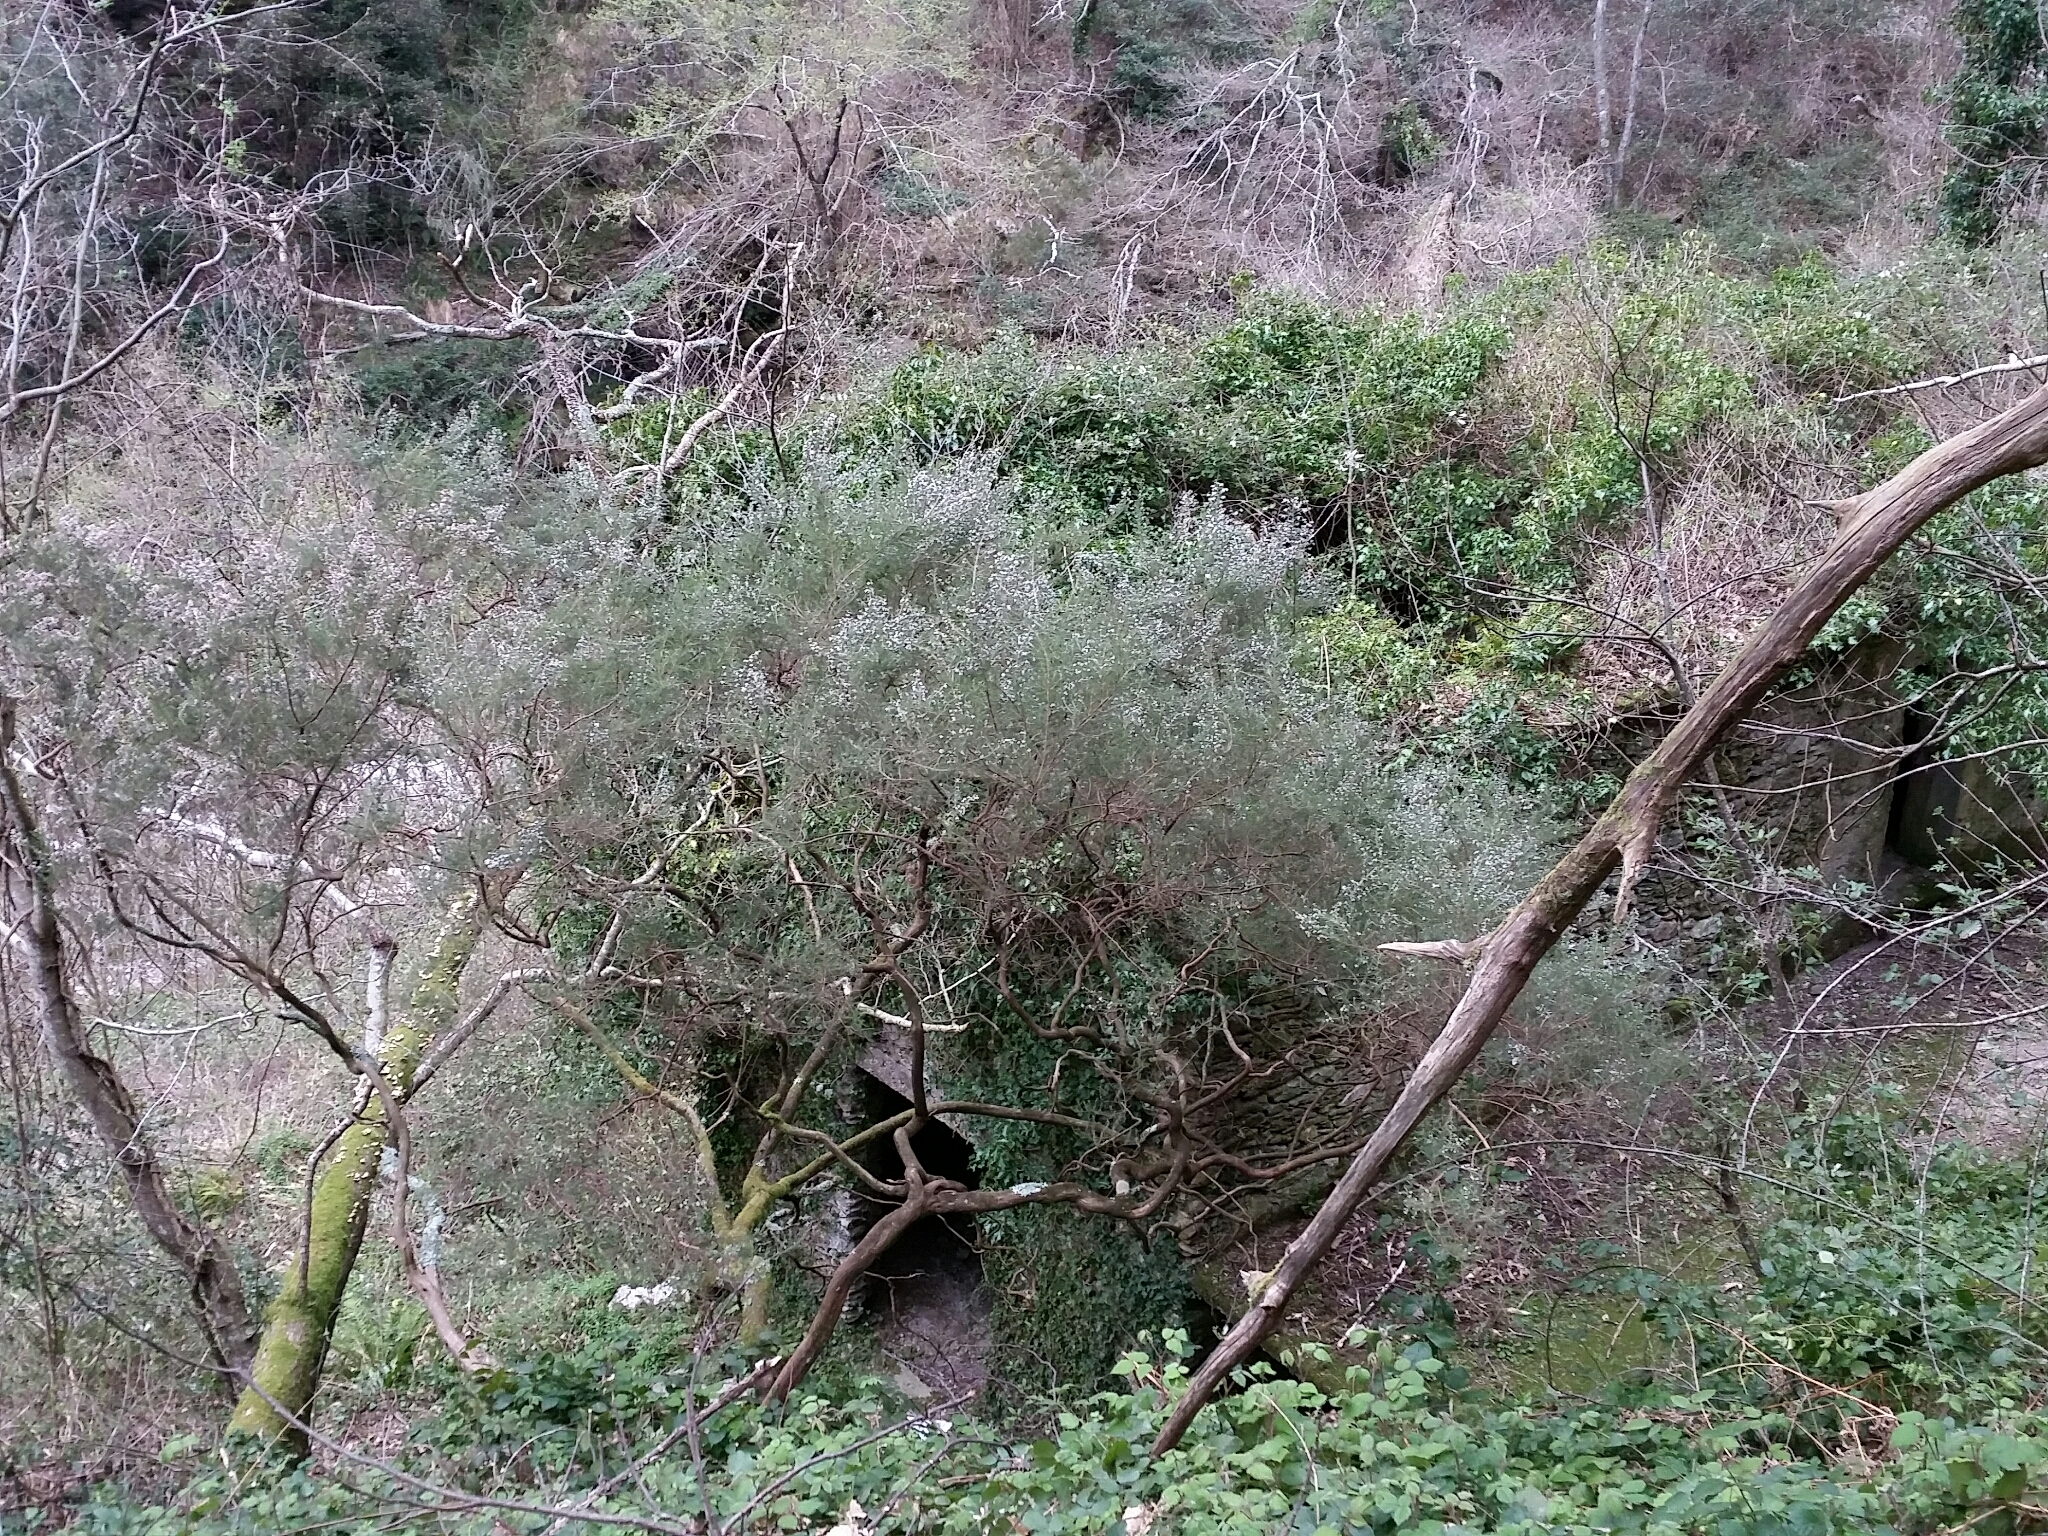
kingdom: Plantae
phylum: Tracheophyta
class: Magnoliopsida
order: Ericales
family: Ericaceae
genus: Erica
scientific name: Erica arborea
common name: Tree heath
